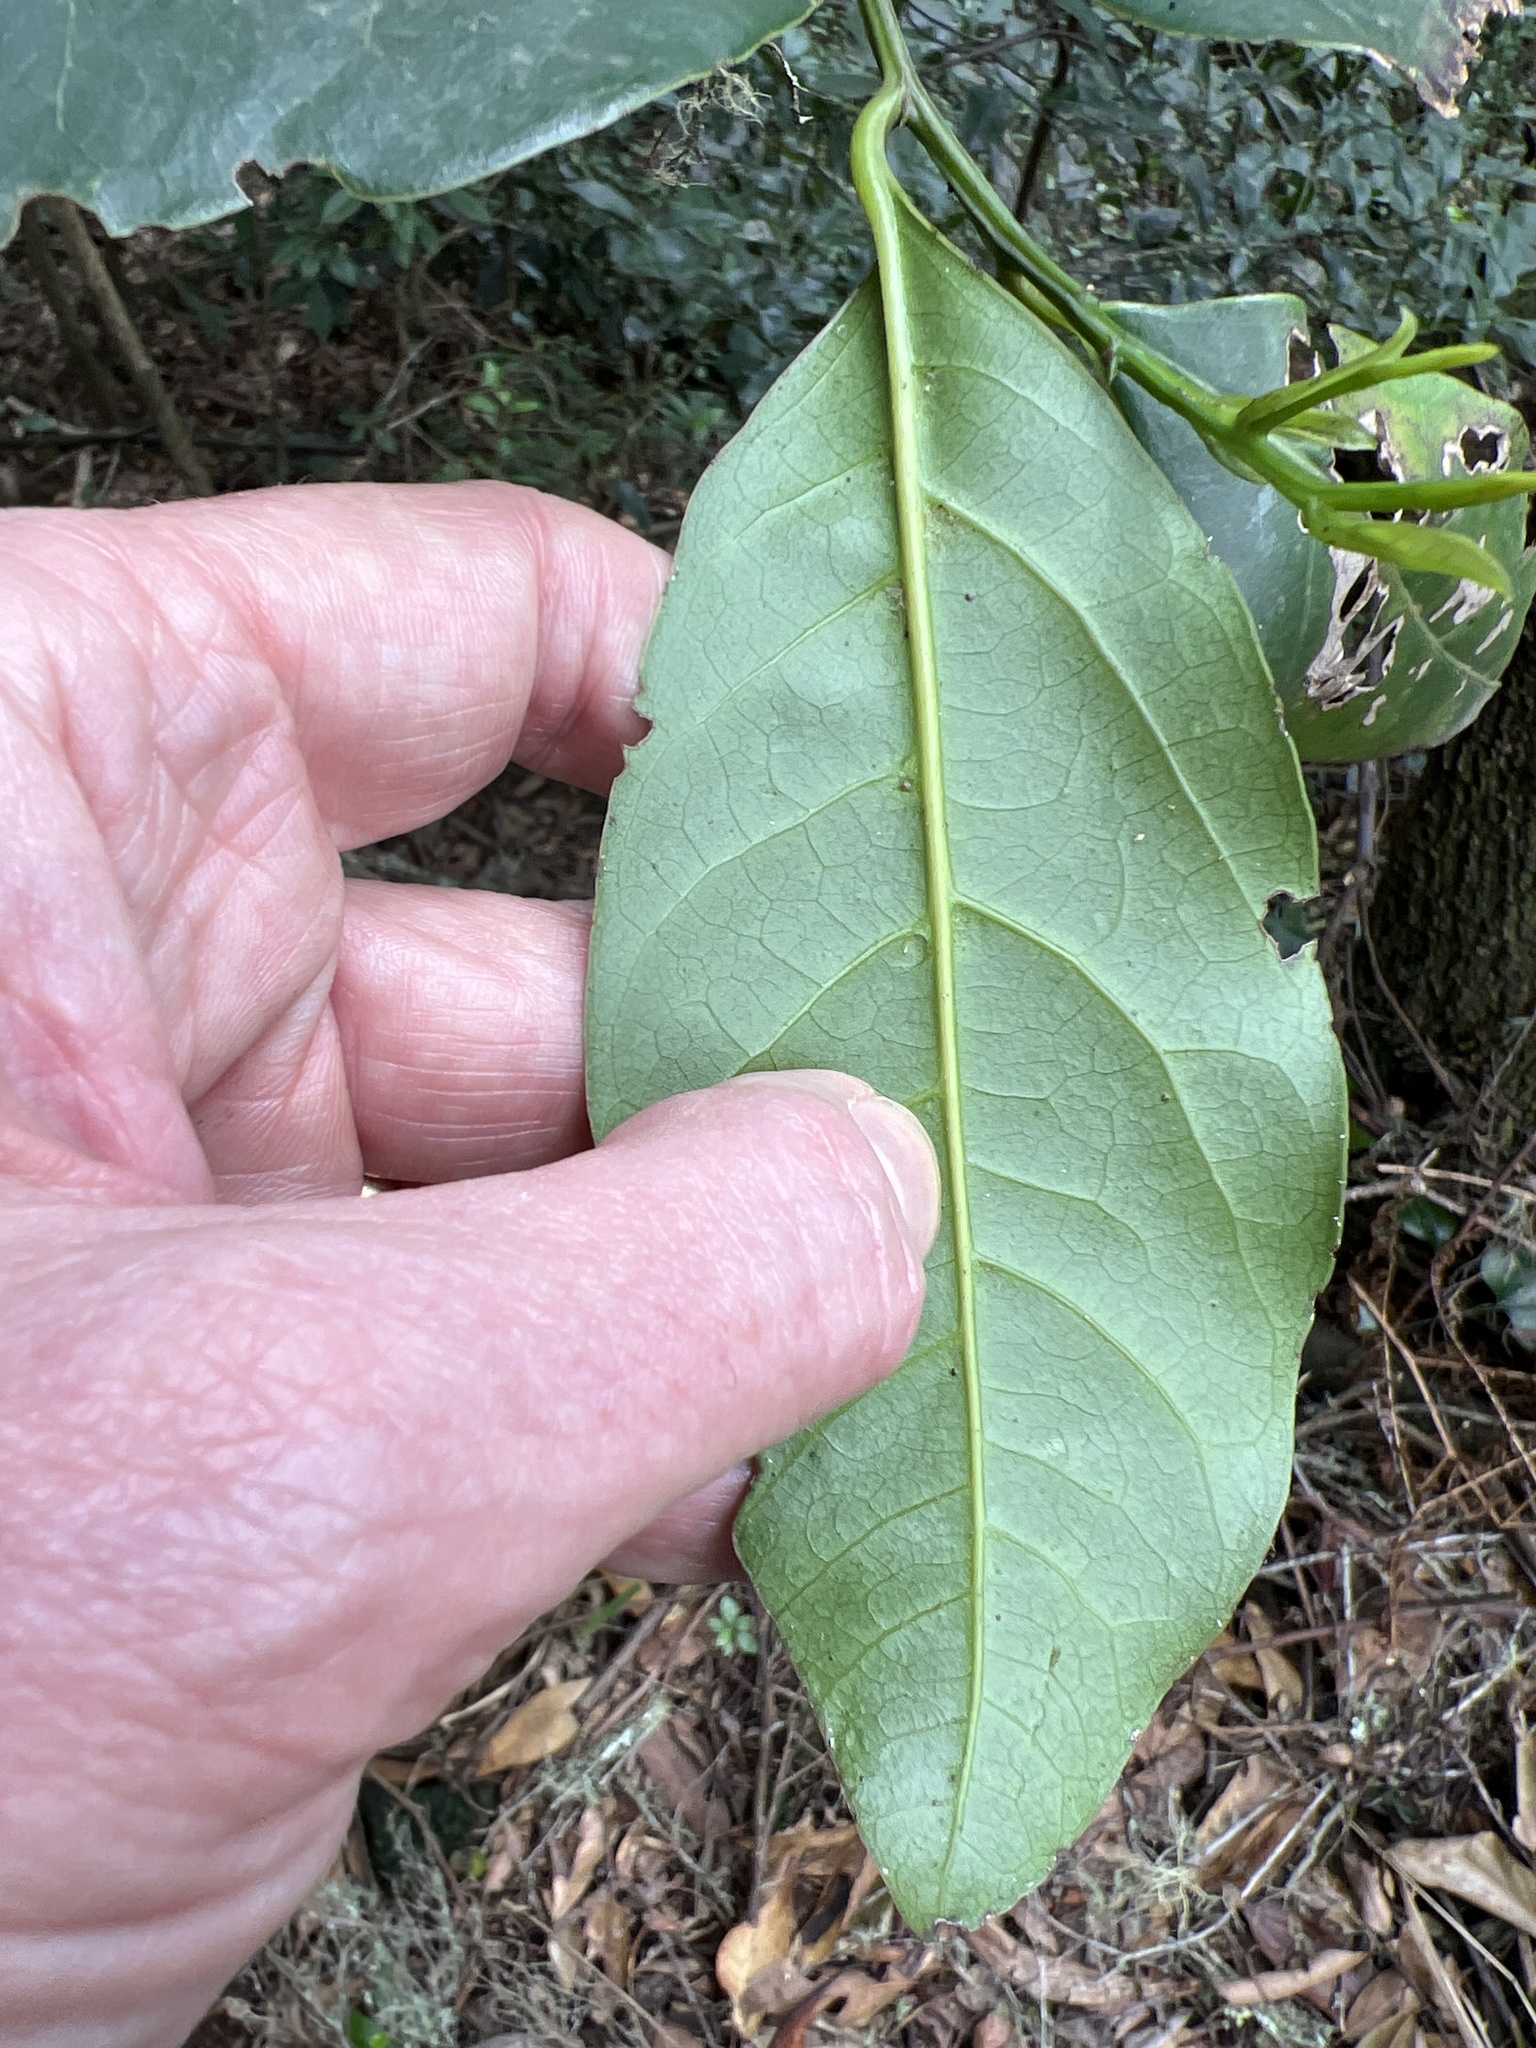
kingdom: Plantae
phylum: Tracheophyta
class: Magnoliopsida
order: Laurales
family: Lauraceae
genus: Laurus
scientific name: Laurus novocanariensis
